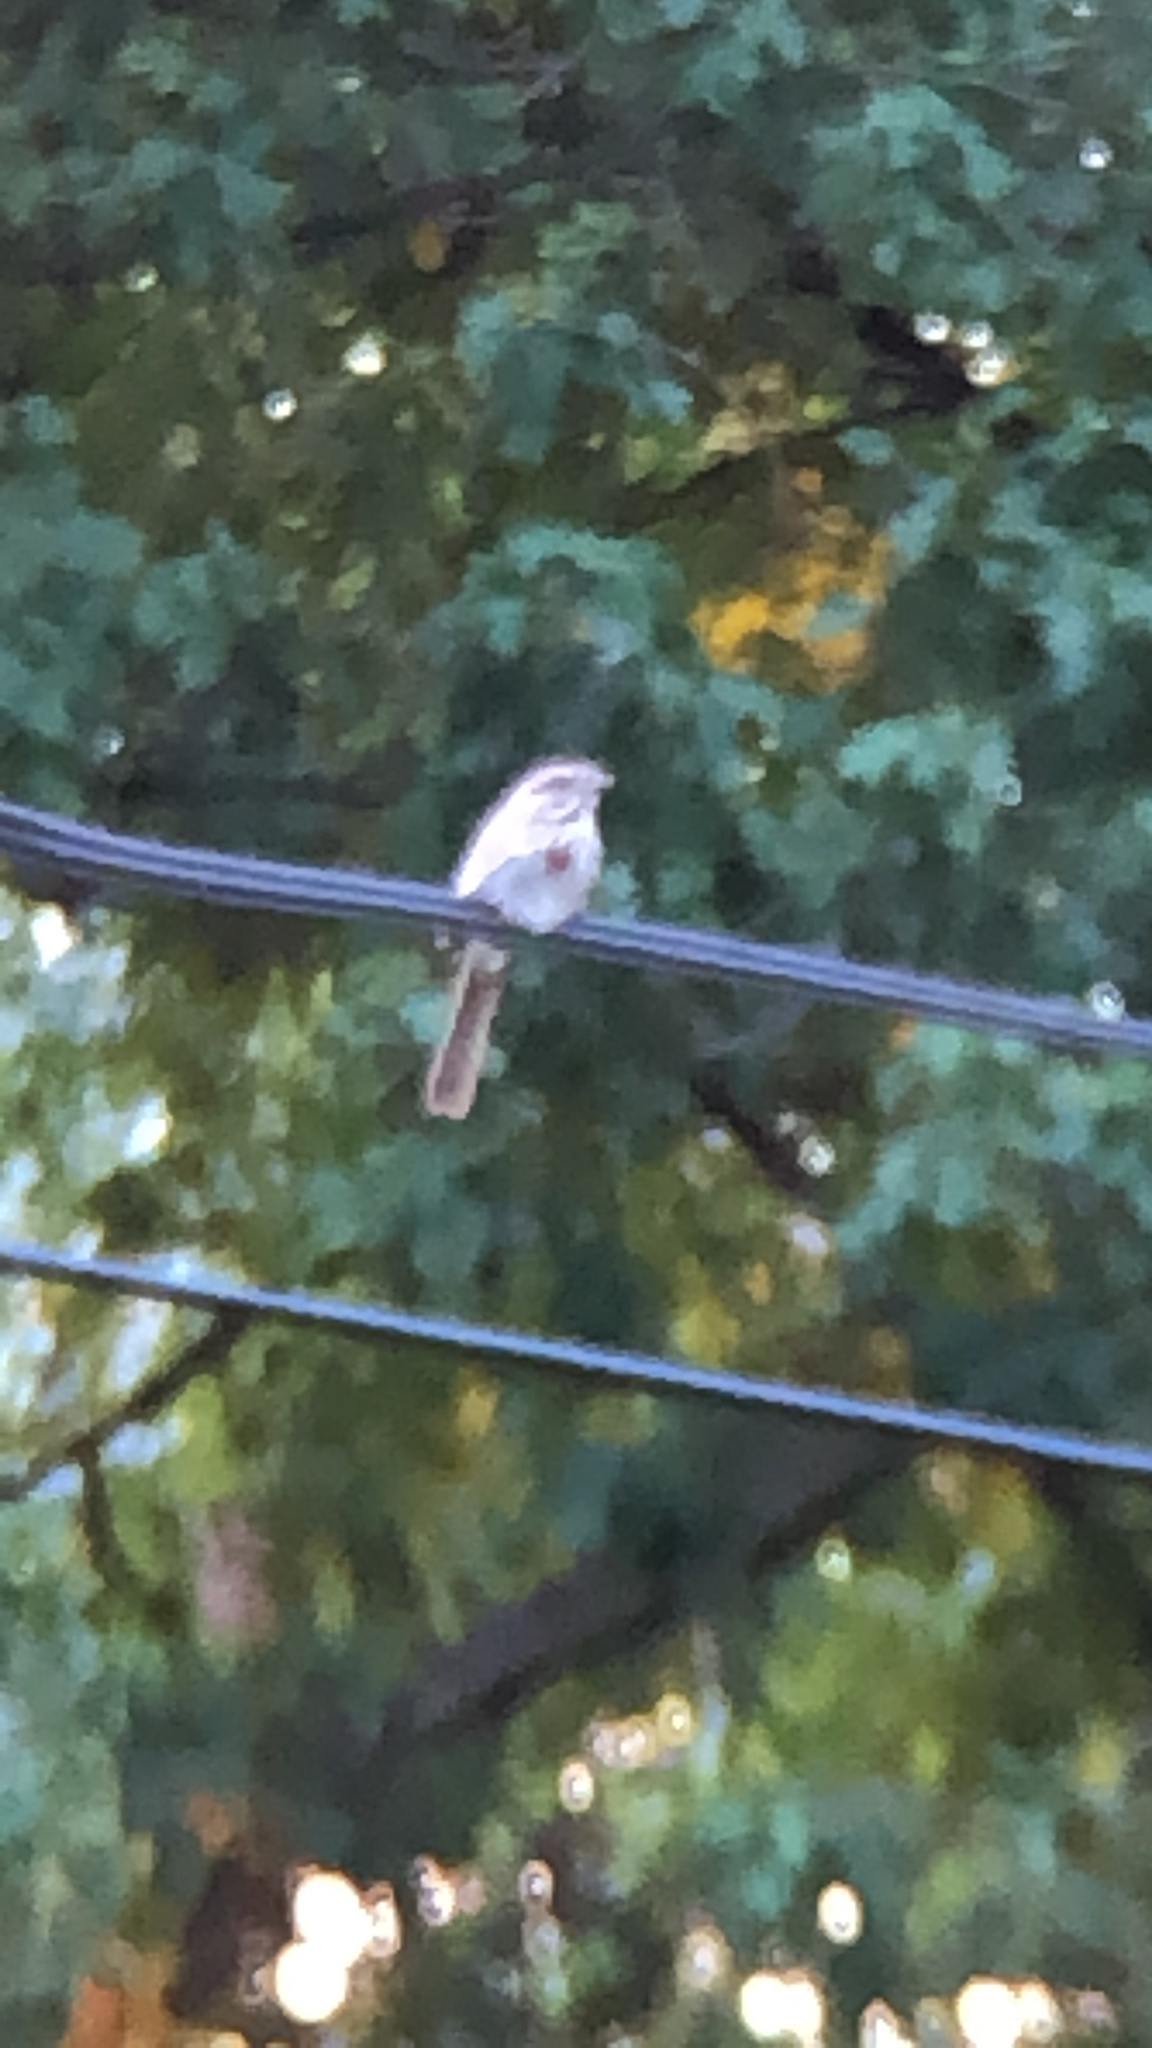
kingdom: Animalia
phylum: Chordata
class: Aves
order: Passeriformes
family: Passerellidae
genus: Melospiza
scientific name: Melospiza melodia
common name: Song sparrow
